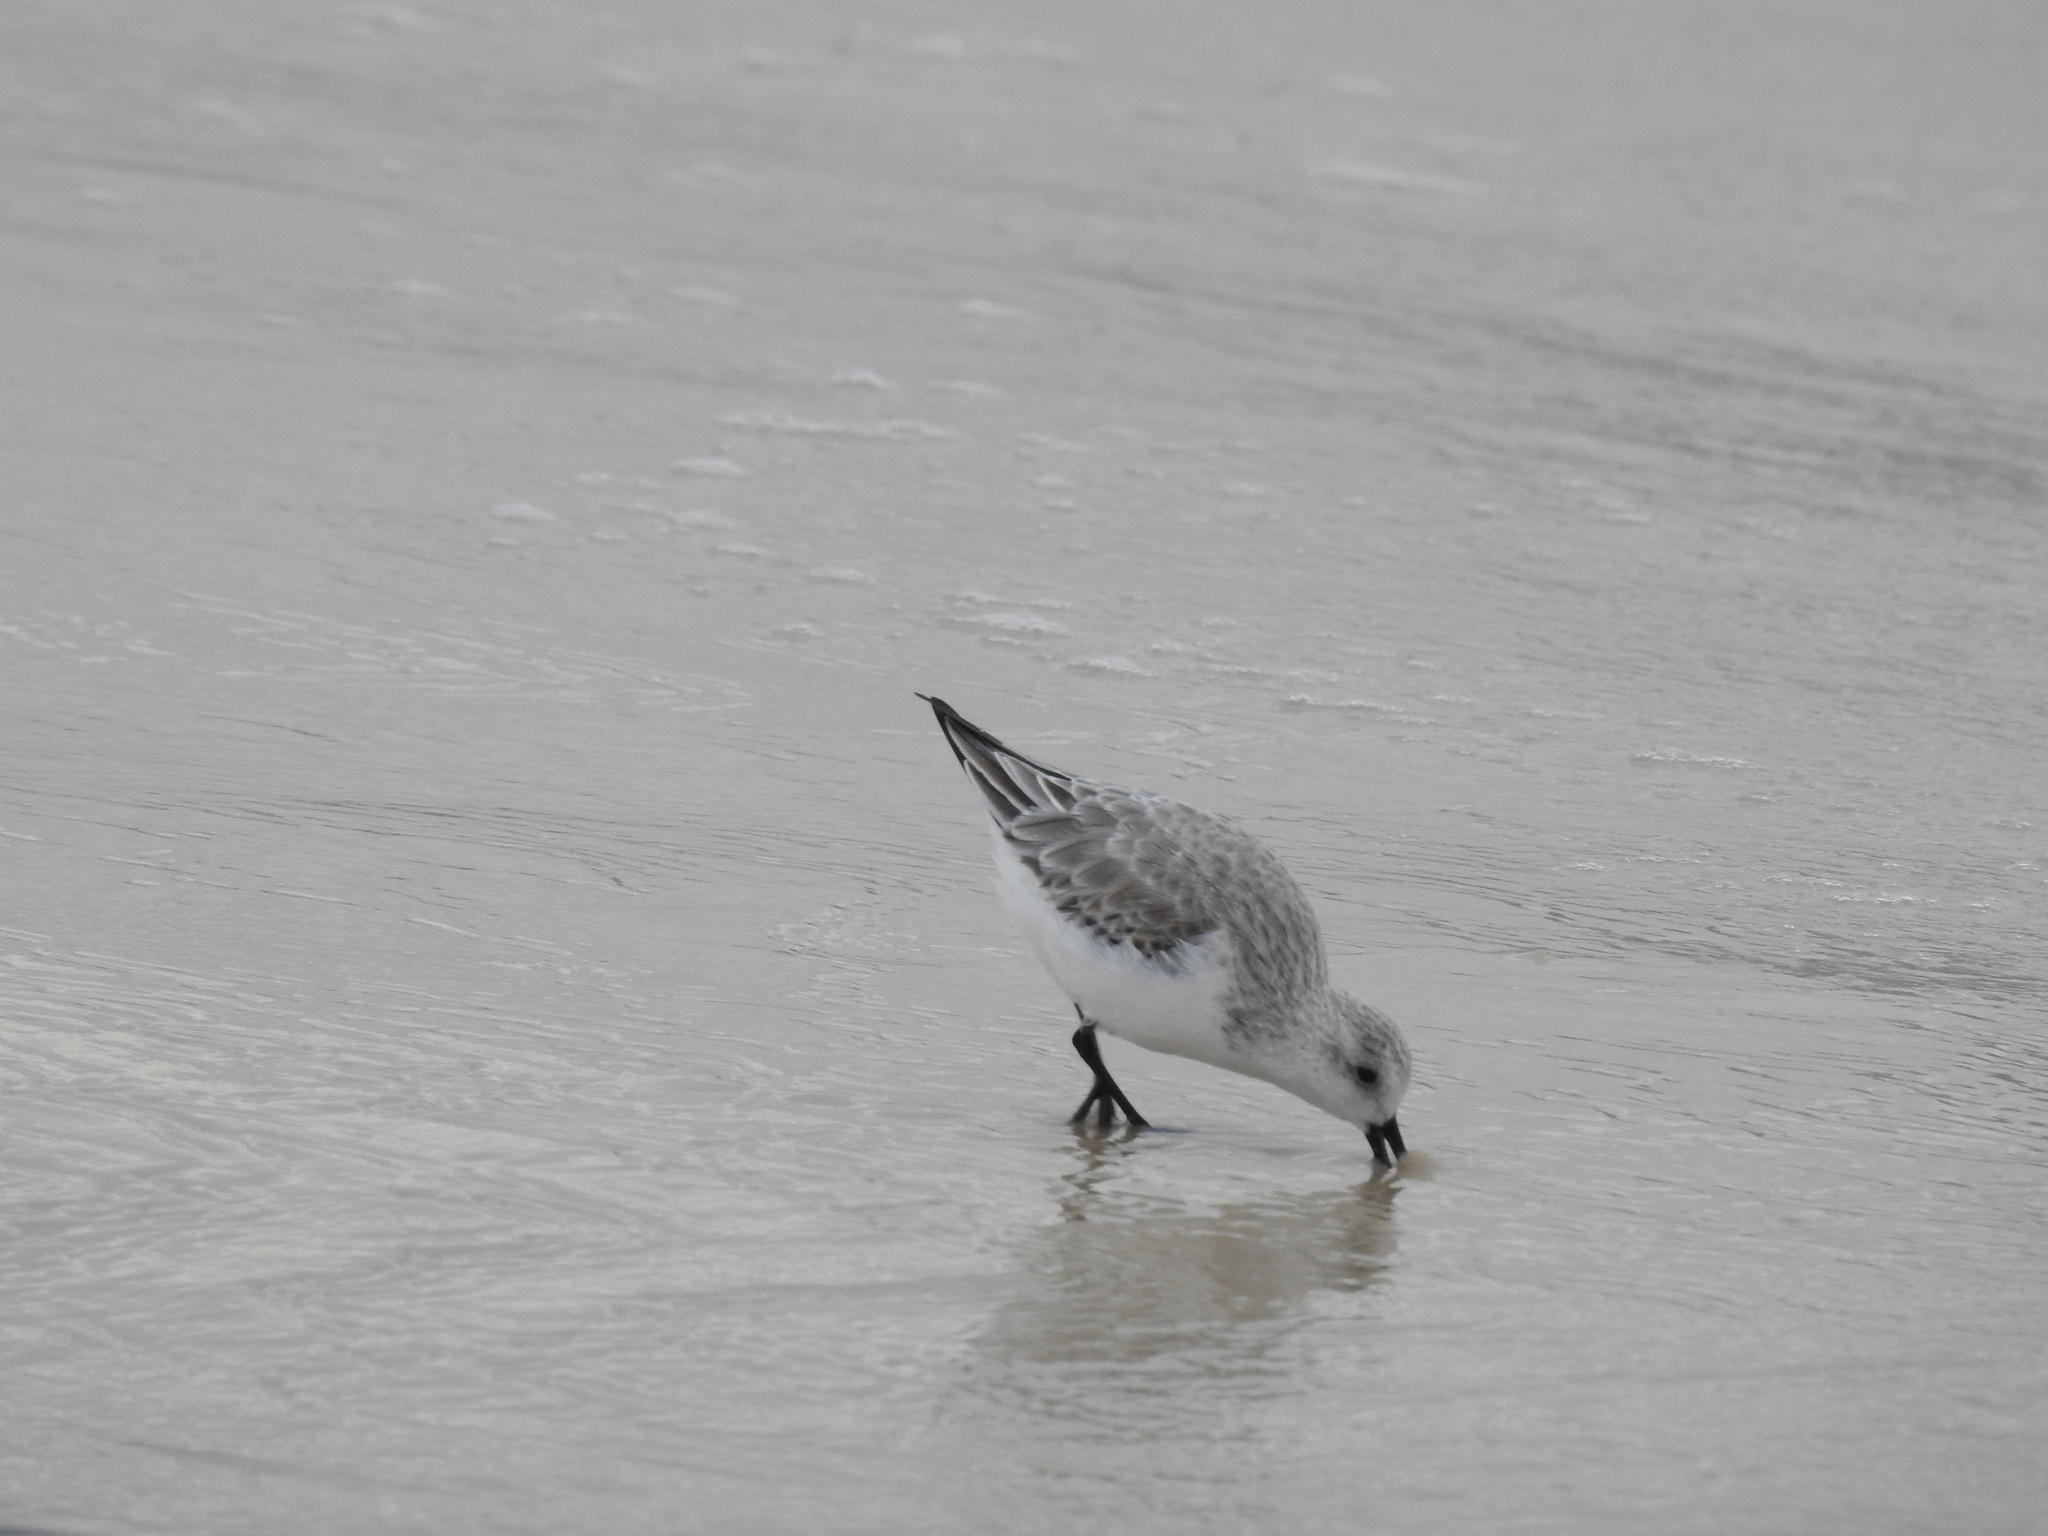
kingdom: Animalia
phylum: Chordata
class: Aves
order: Charadriiformes
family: Scolopacidae
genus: Calidris
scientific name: Calidris alba
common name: Sanderling
